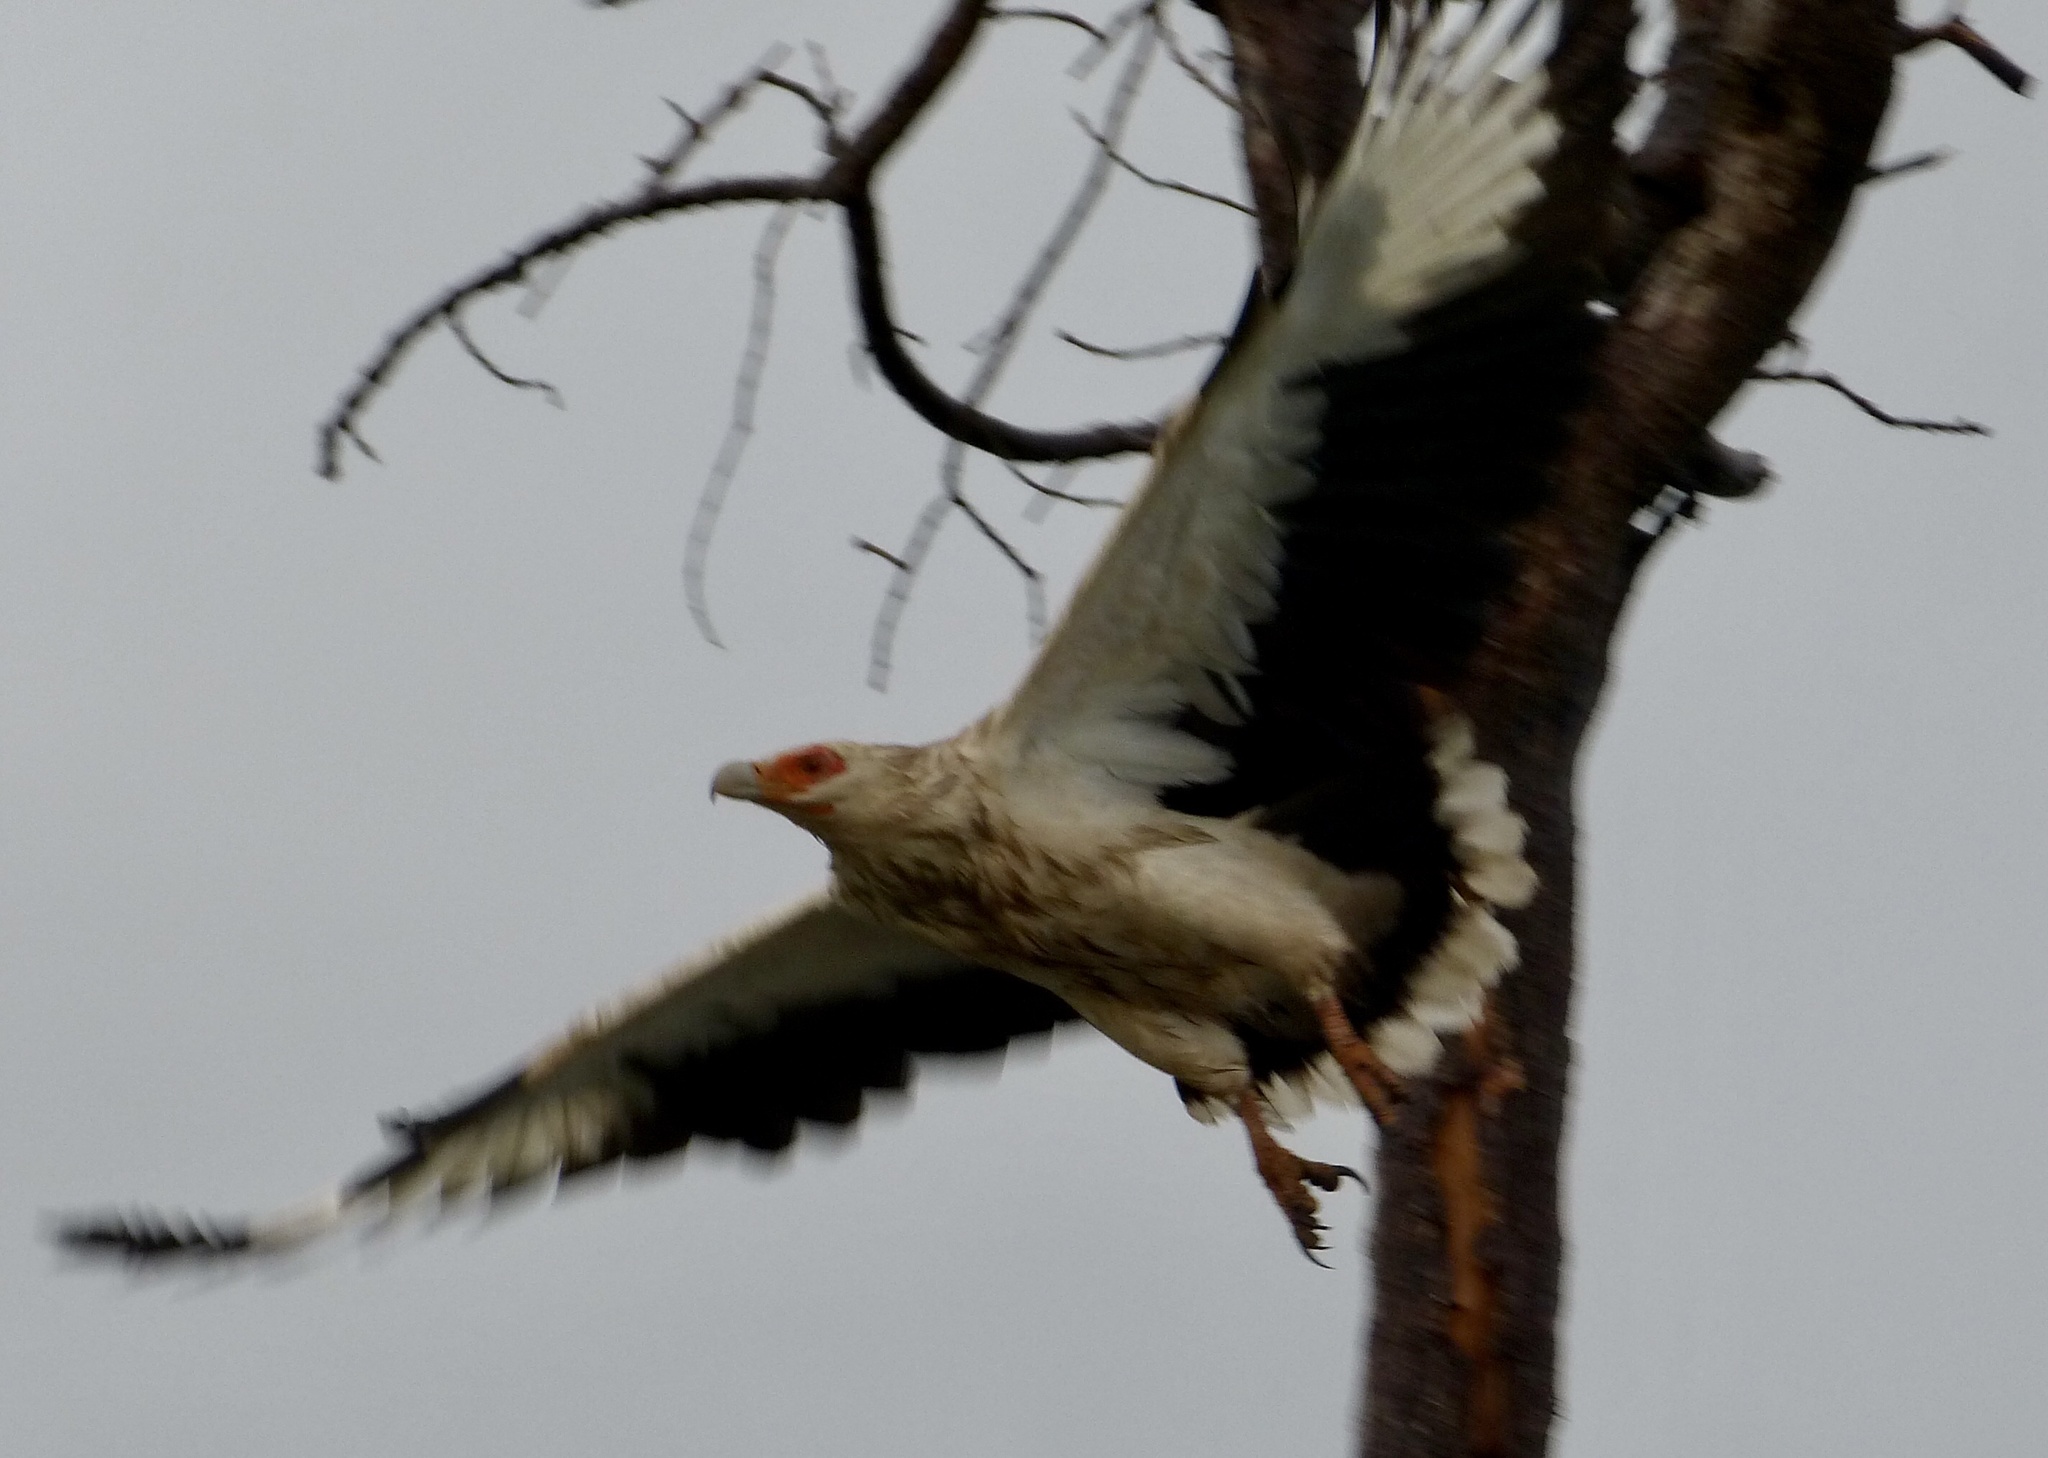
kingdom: Animalia
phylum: Chordata
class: Aves
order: Accipitriformes
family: Accipitridae
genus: Gypohierax
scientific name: Gypohierax angolensis
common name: Palm-nut vulture
